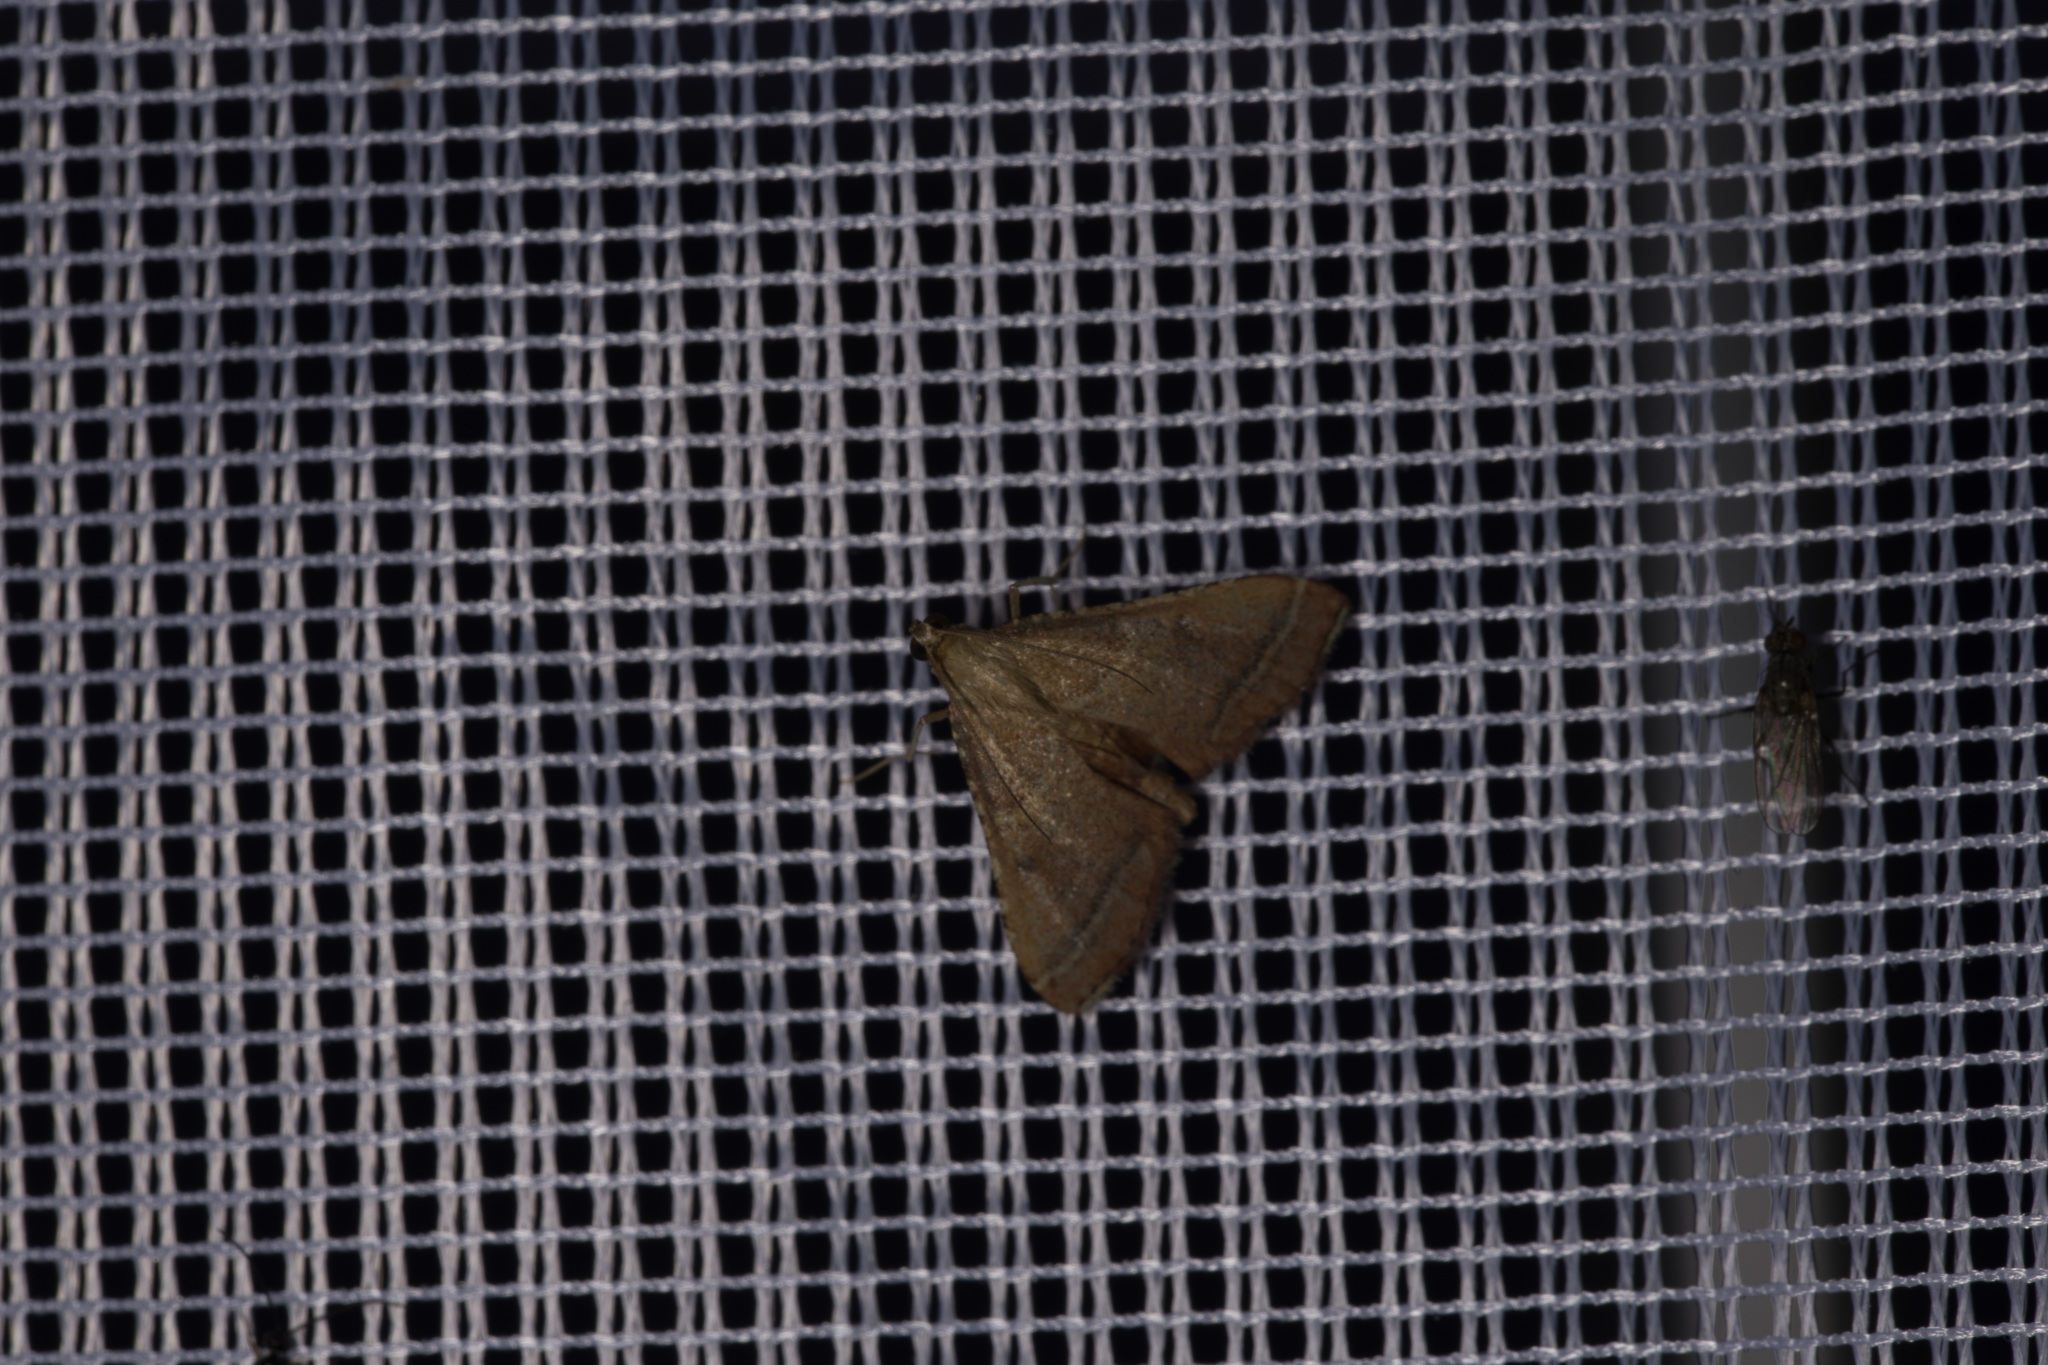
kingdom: Animalia
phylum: Arthropoda
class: Insecta
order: Lepidoptera
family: Pyralidae
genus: Endotricha
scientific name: Endotricha flammealis
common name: Rosy tabby
